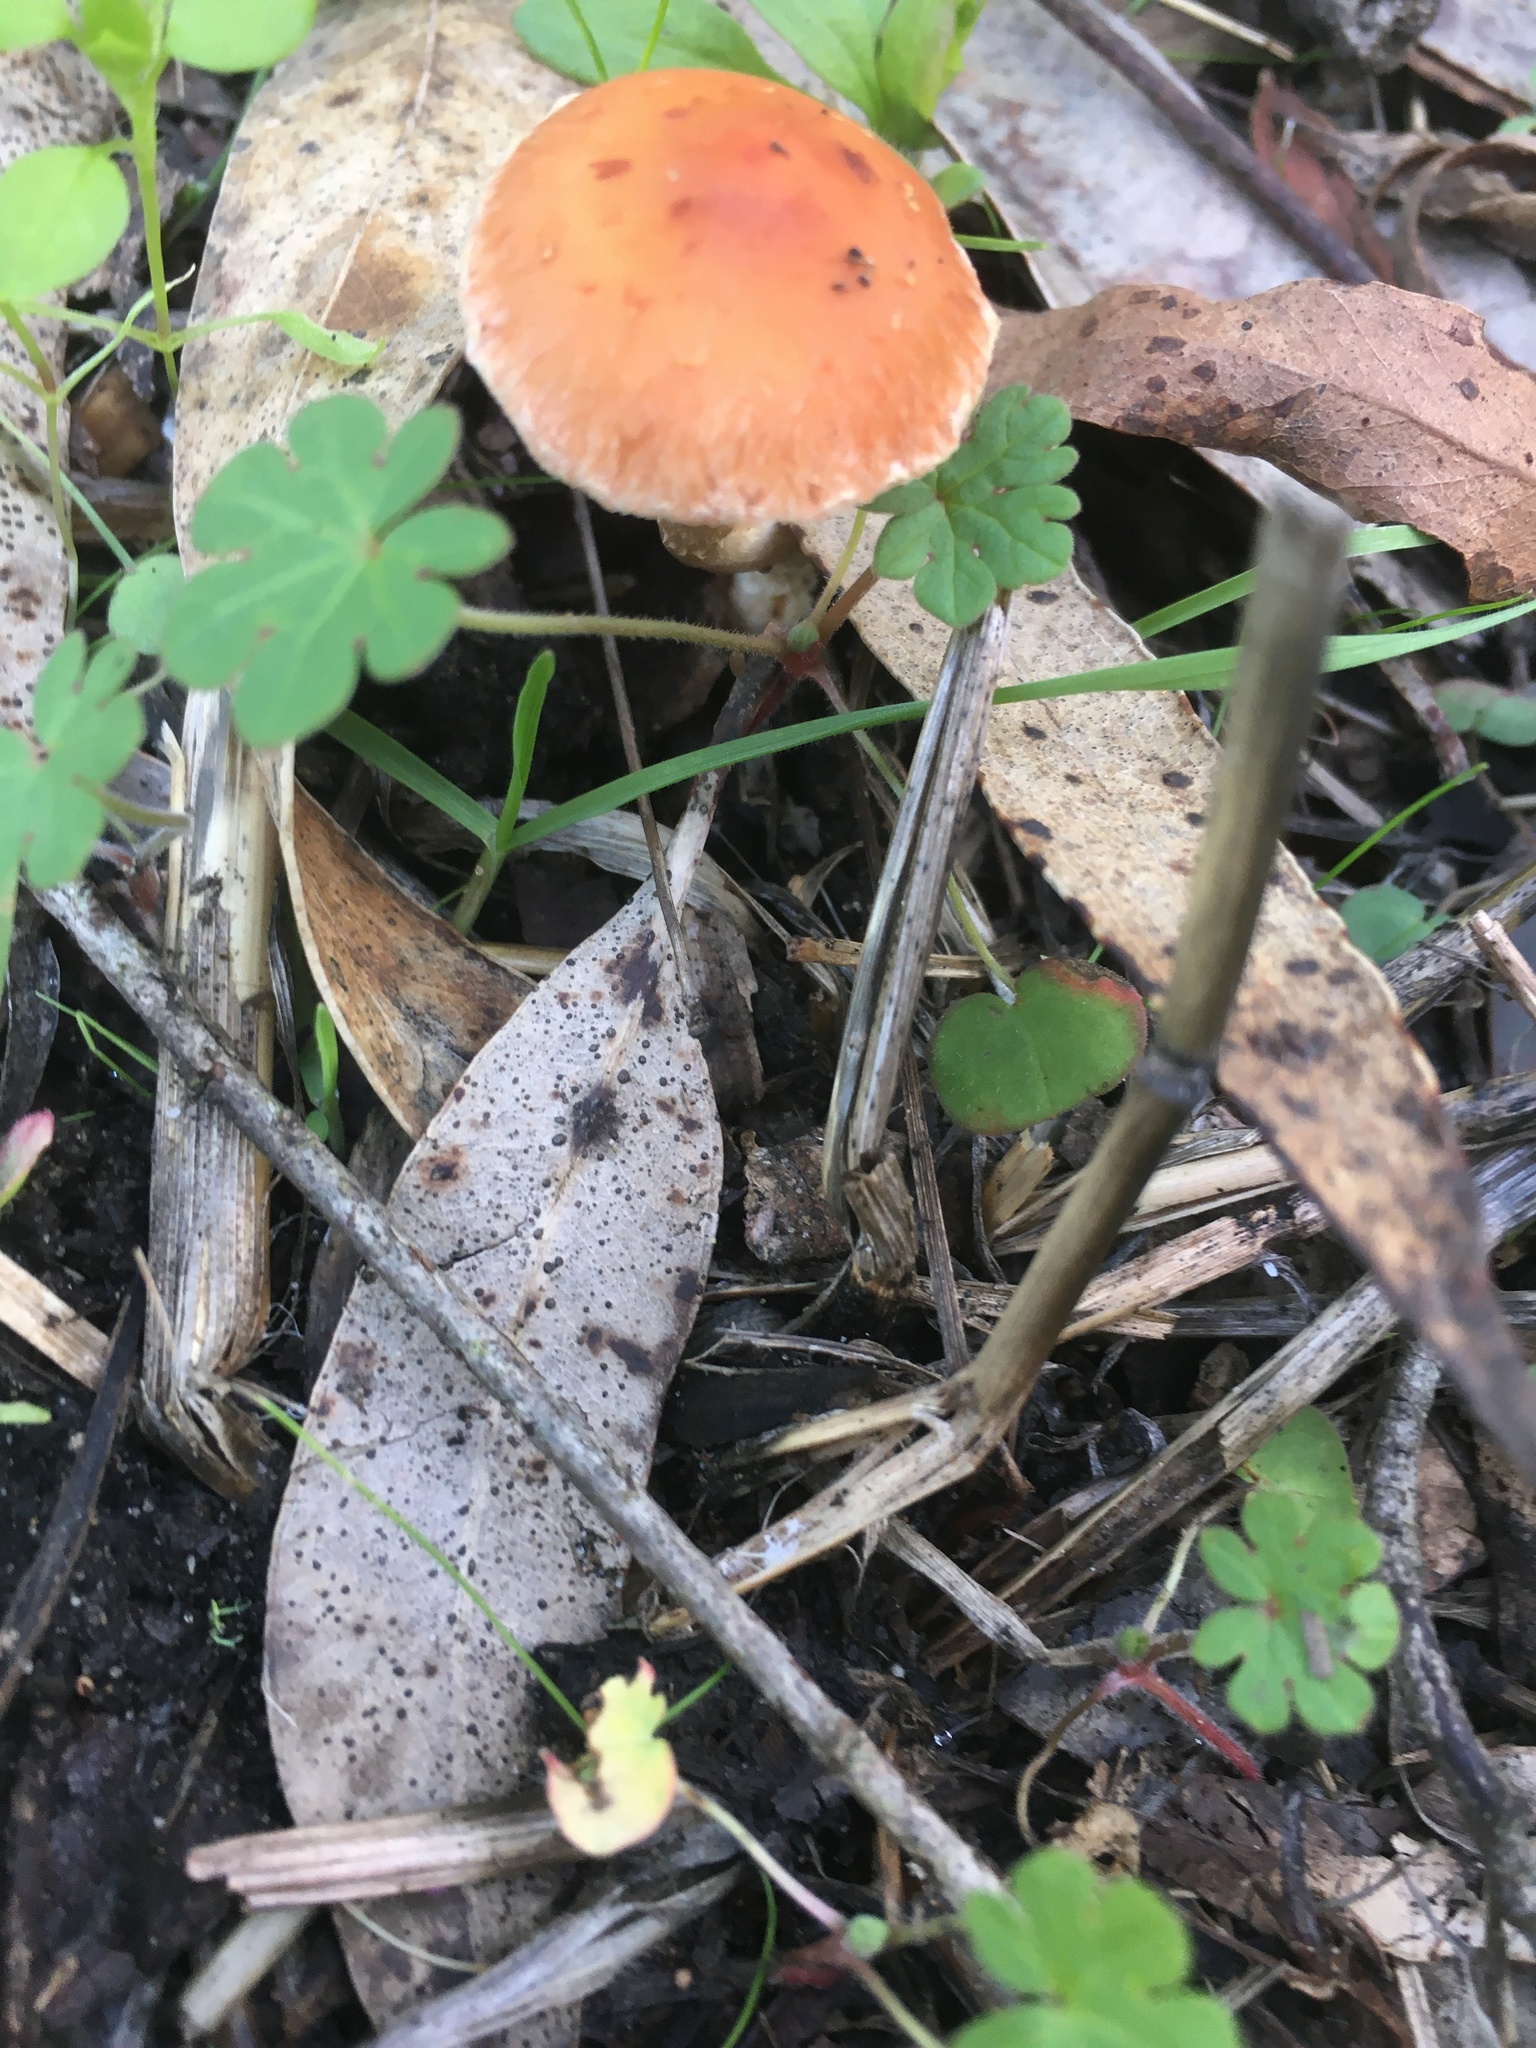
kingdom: Fungi
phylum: Basidiomycota
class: Agaricomycetes
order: Agaricales
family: Strophariaceae
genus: Leratiomyces
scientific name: Leratiomyces ceres
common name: Redlead roundhead
